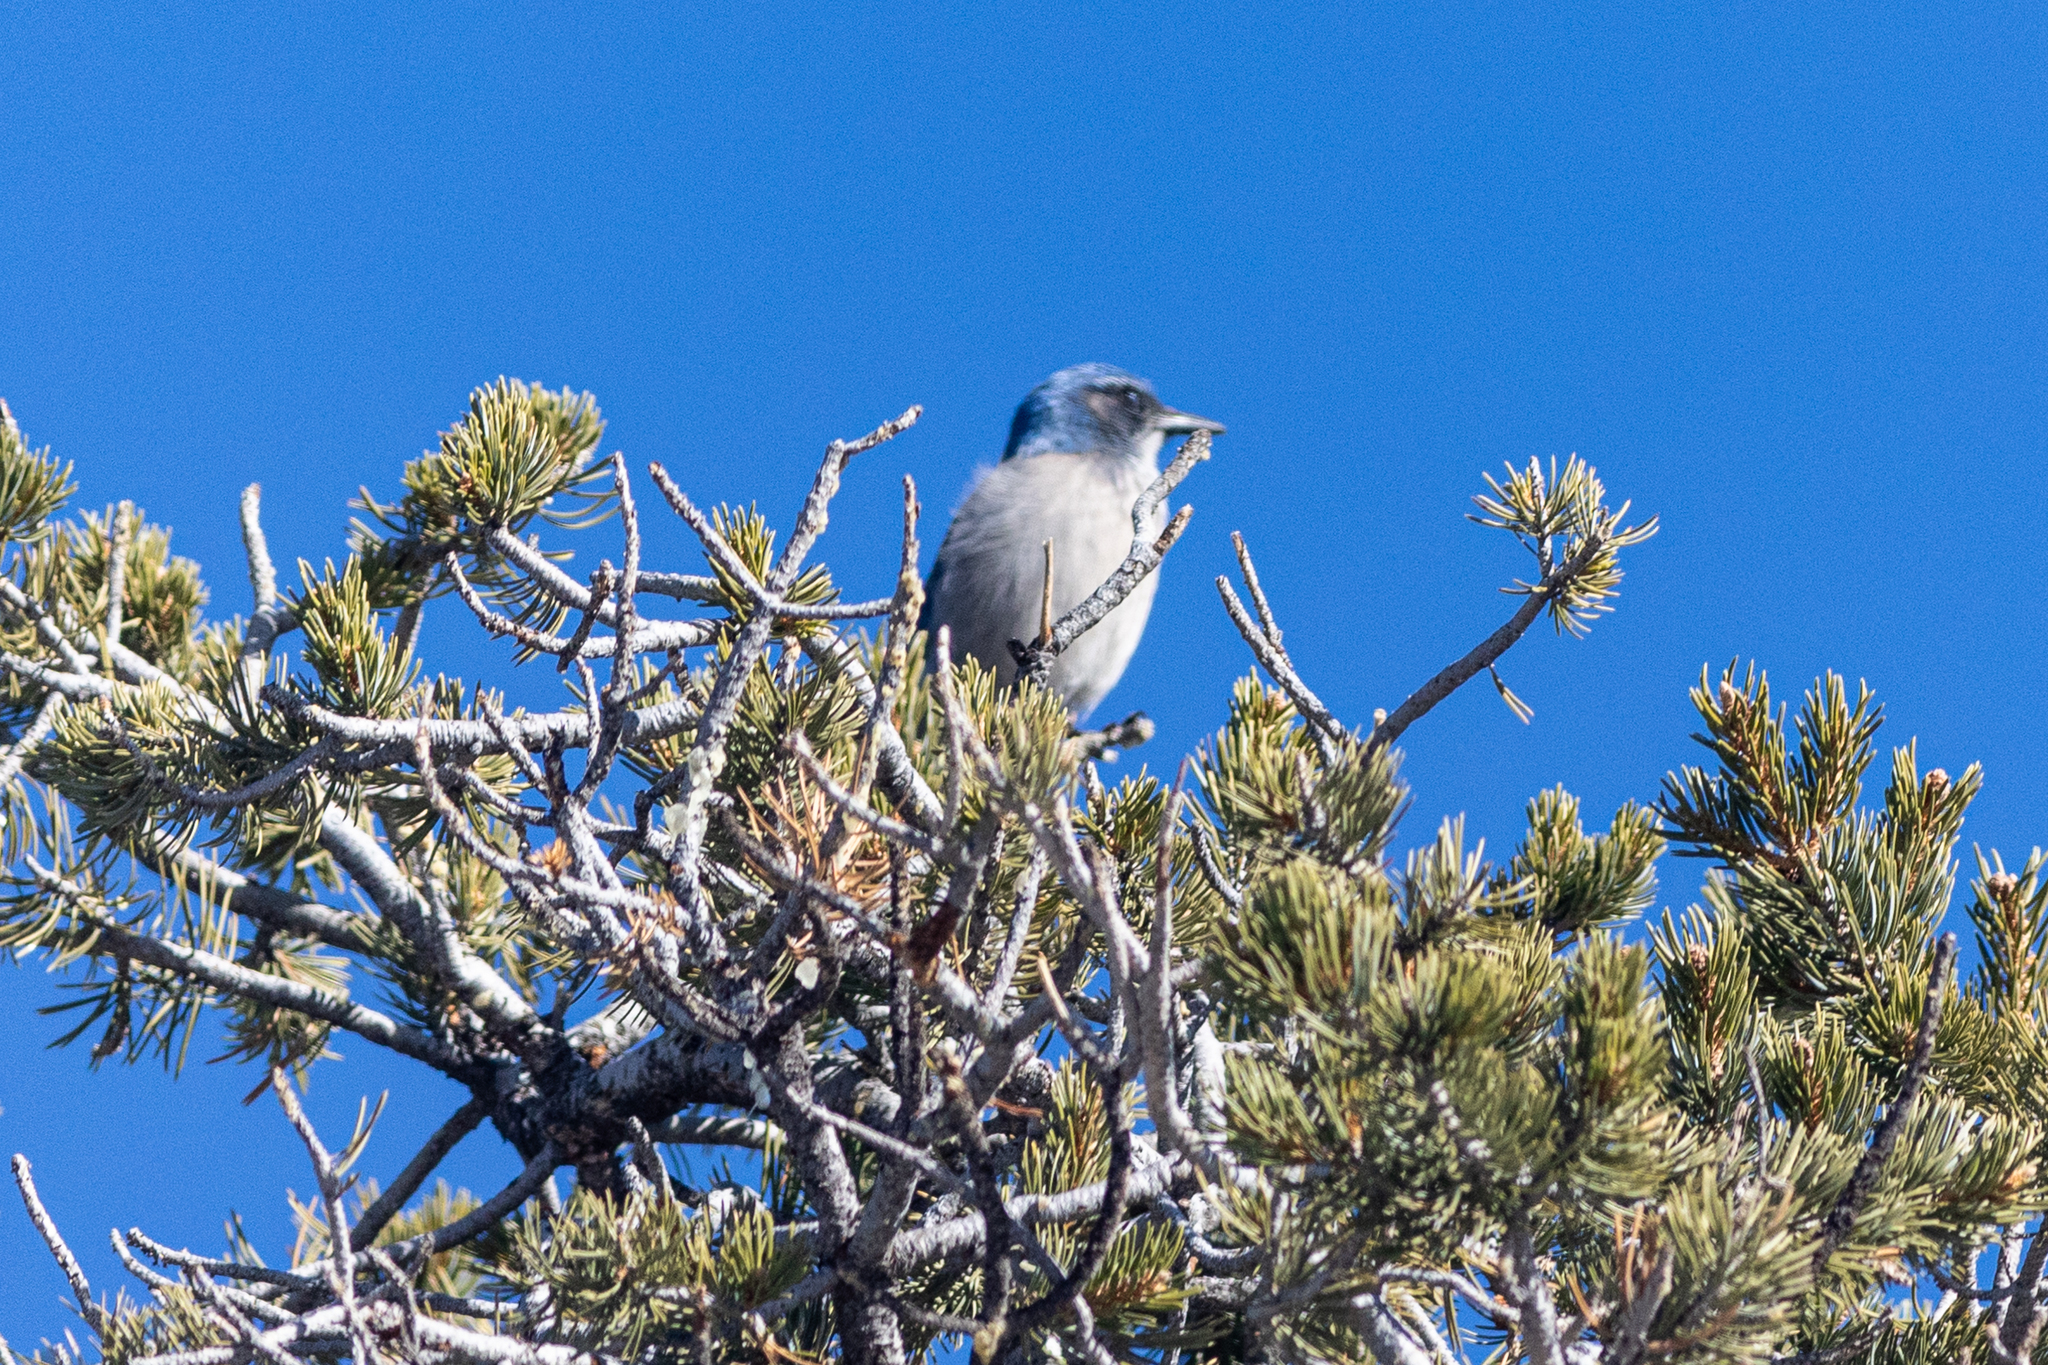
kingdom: Animalia
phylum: Chordata
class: Aves
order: Passeriformes
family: Corvidae
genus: Aphelocoma
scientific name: Aphelocoma woodhouseii
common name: Woodhouse's scrub-jay
